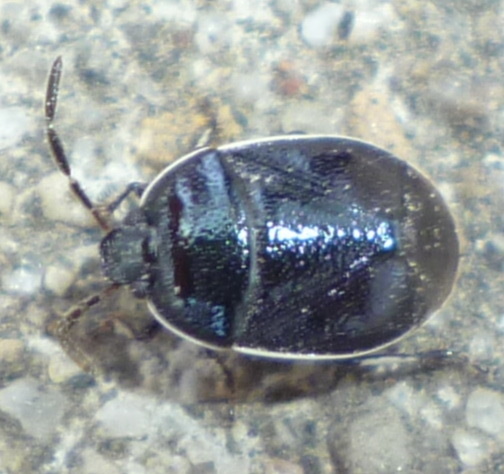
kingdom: Animalia
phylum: Arthropoda
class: Insecta
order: Hemiptera
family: Cydnidae
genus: Sehirus
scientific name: Sehirus cinctus
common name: White-margined burrower bug
